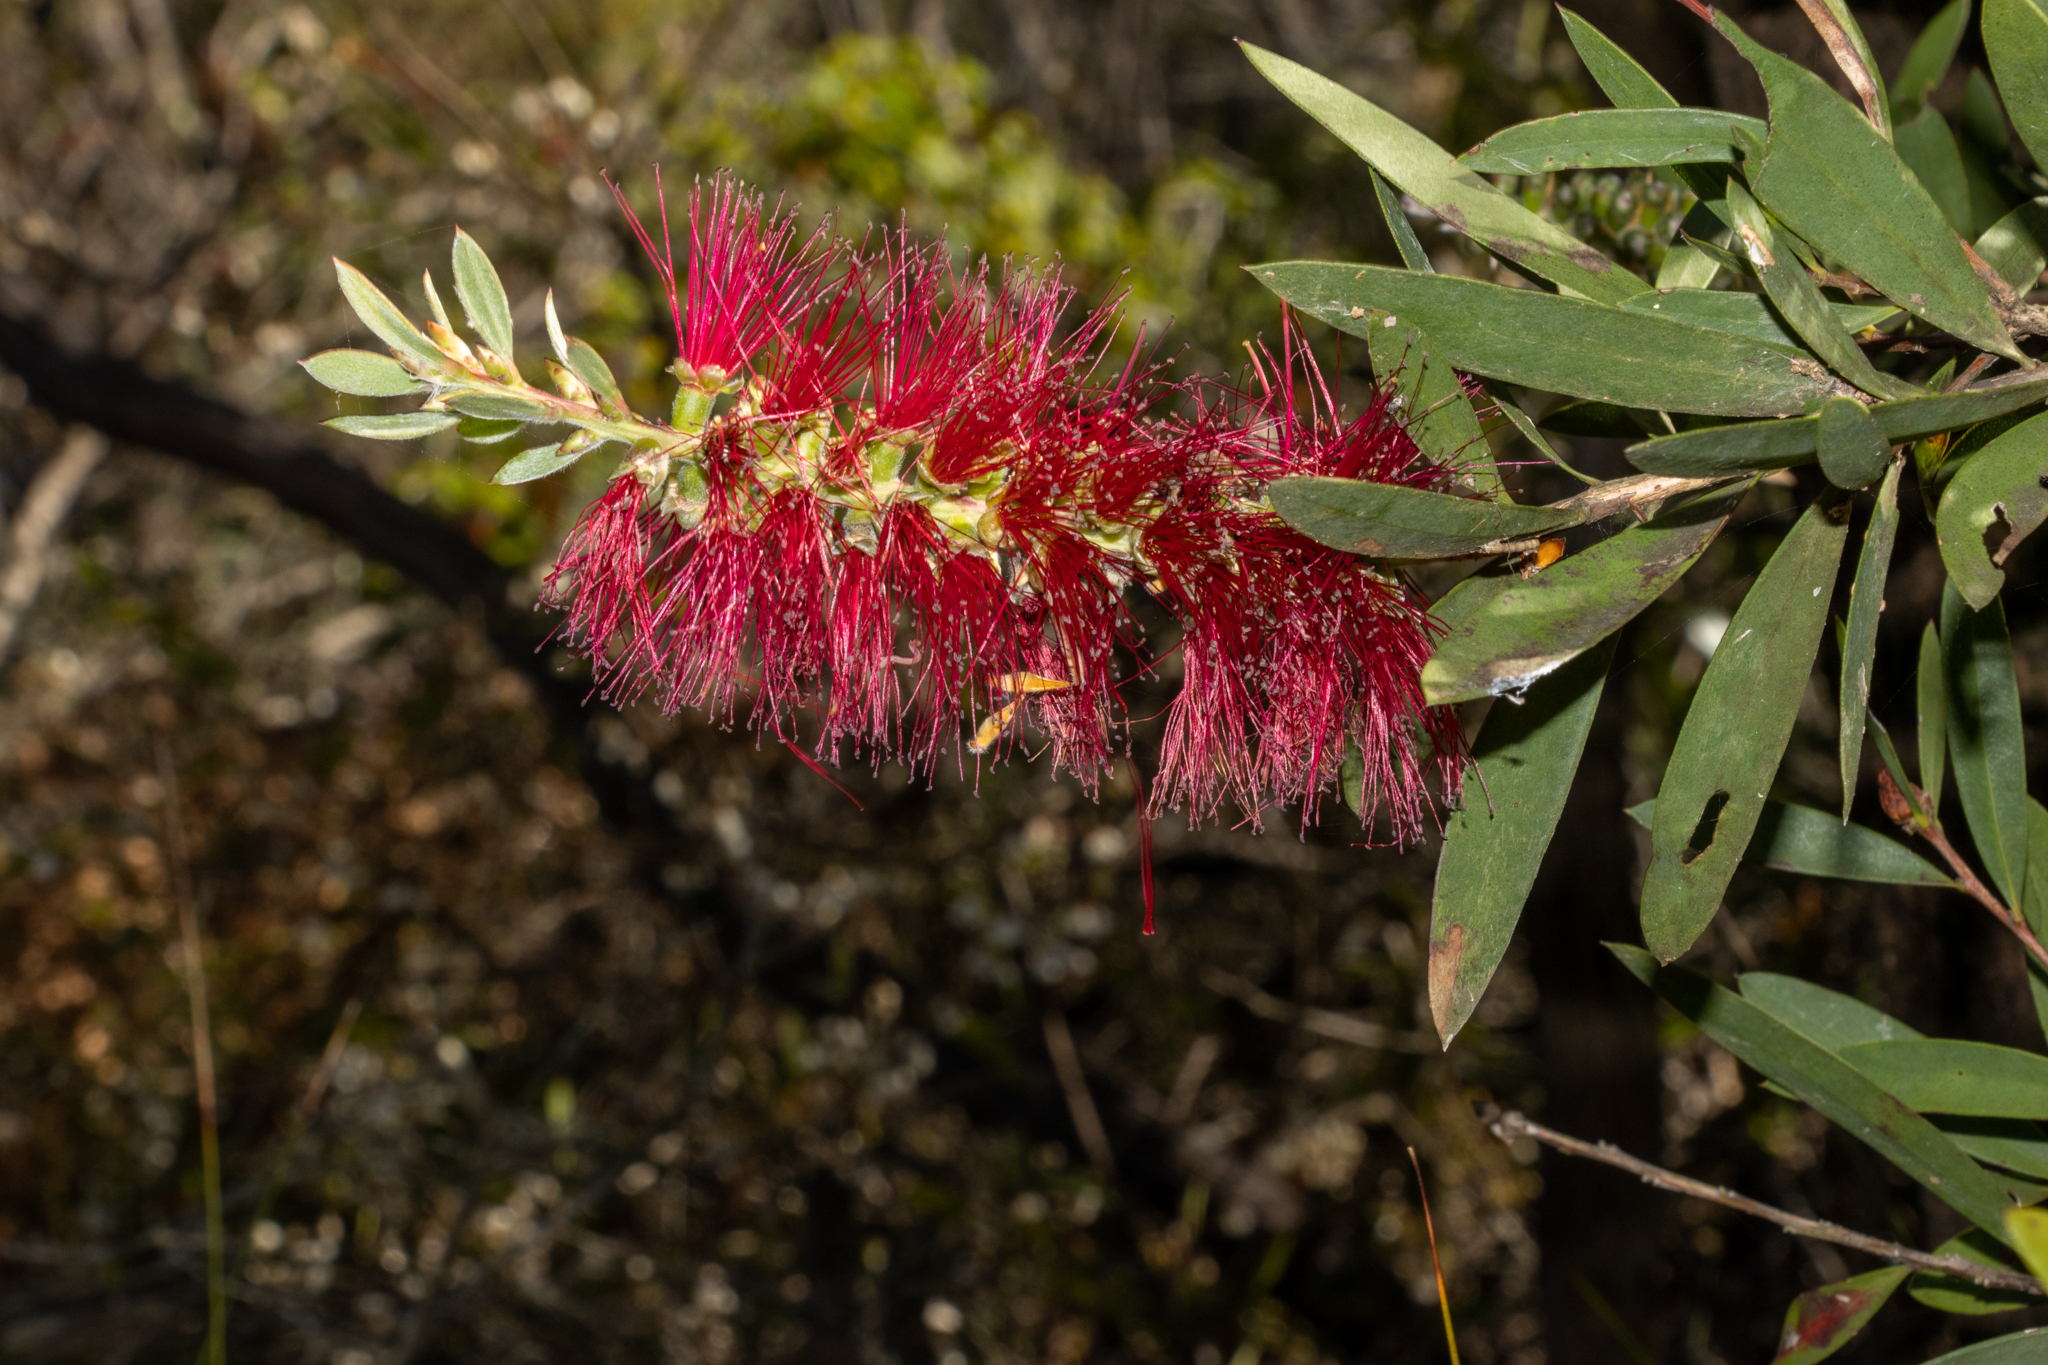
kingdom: Plantae
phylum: Tracheophyta
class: Magnoliopsida
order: Myrtales
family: Myrtaceae
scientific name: Myrtaceae
